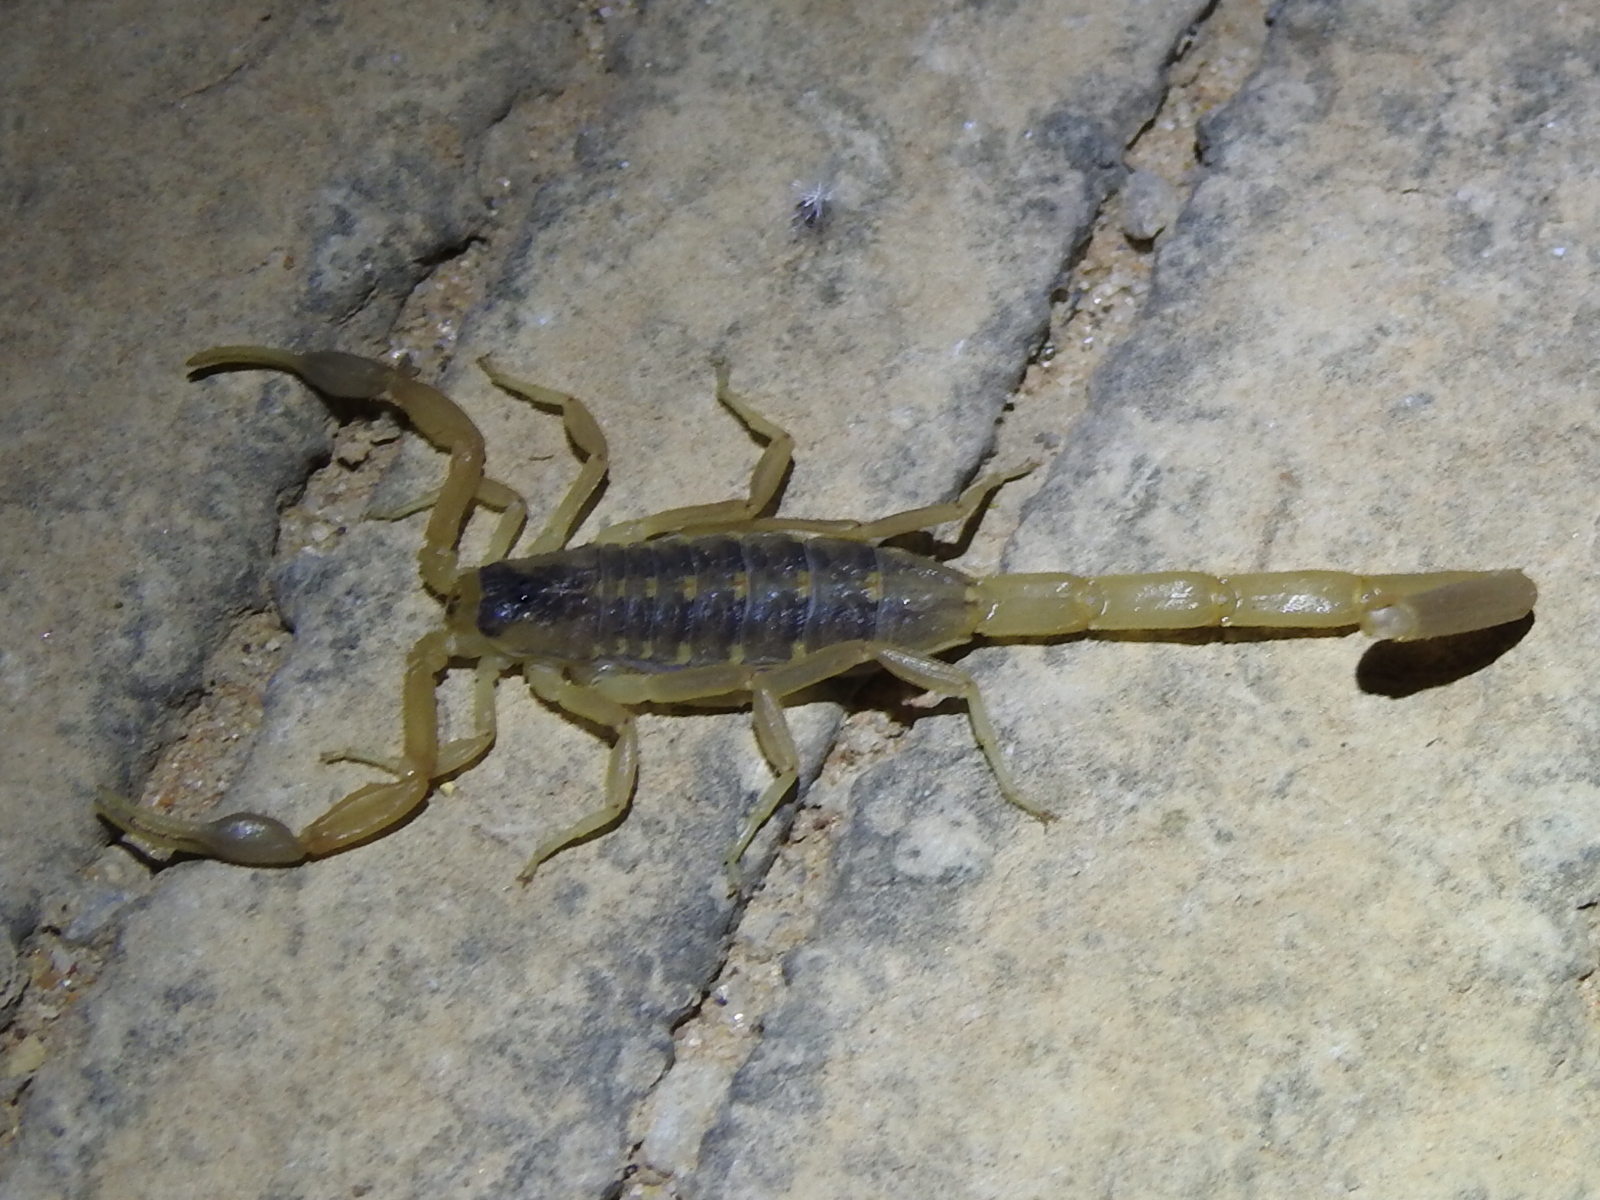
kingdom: Animalia
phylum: Arthropoda
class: Arachnida
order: Scorpiones
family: Buthidae
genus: Centruroides
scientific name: Centruroides vittatus
